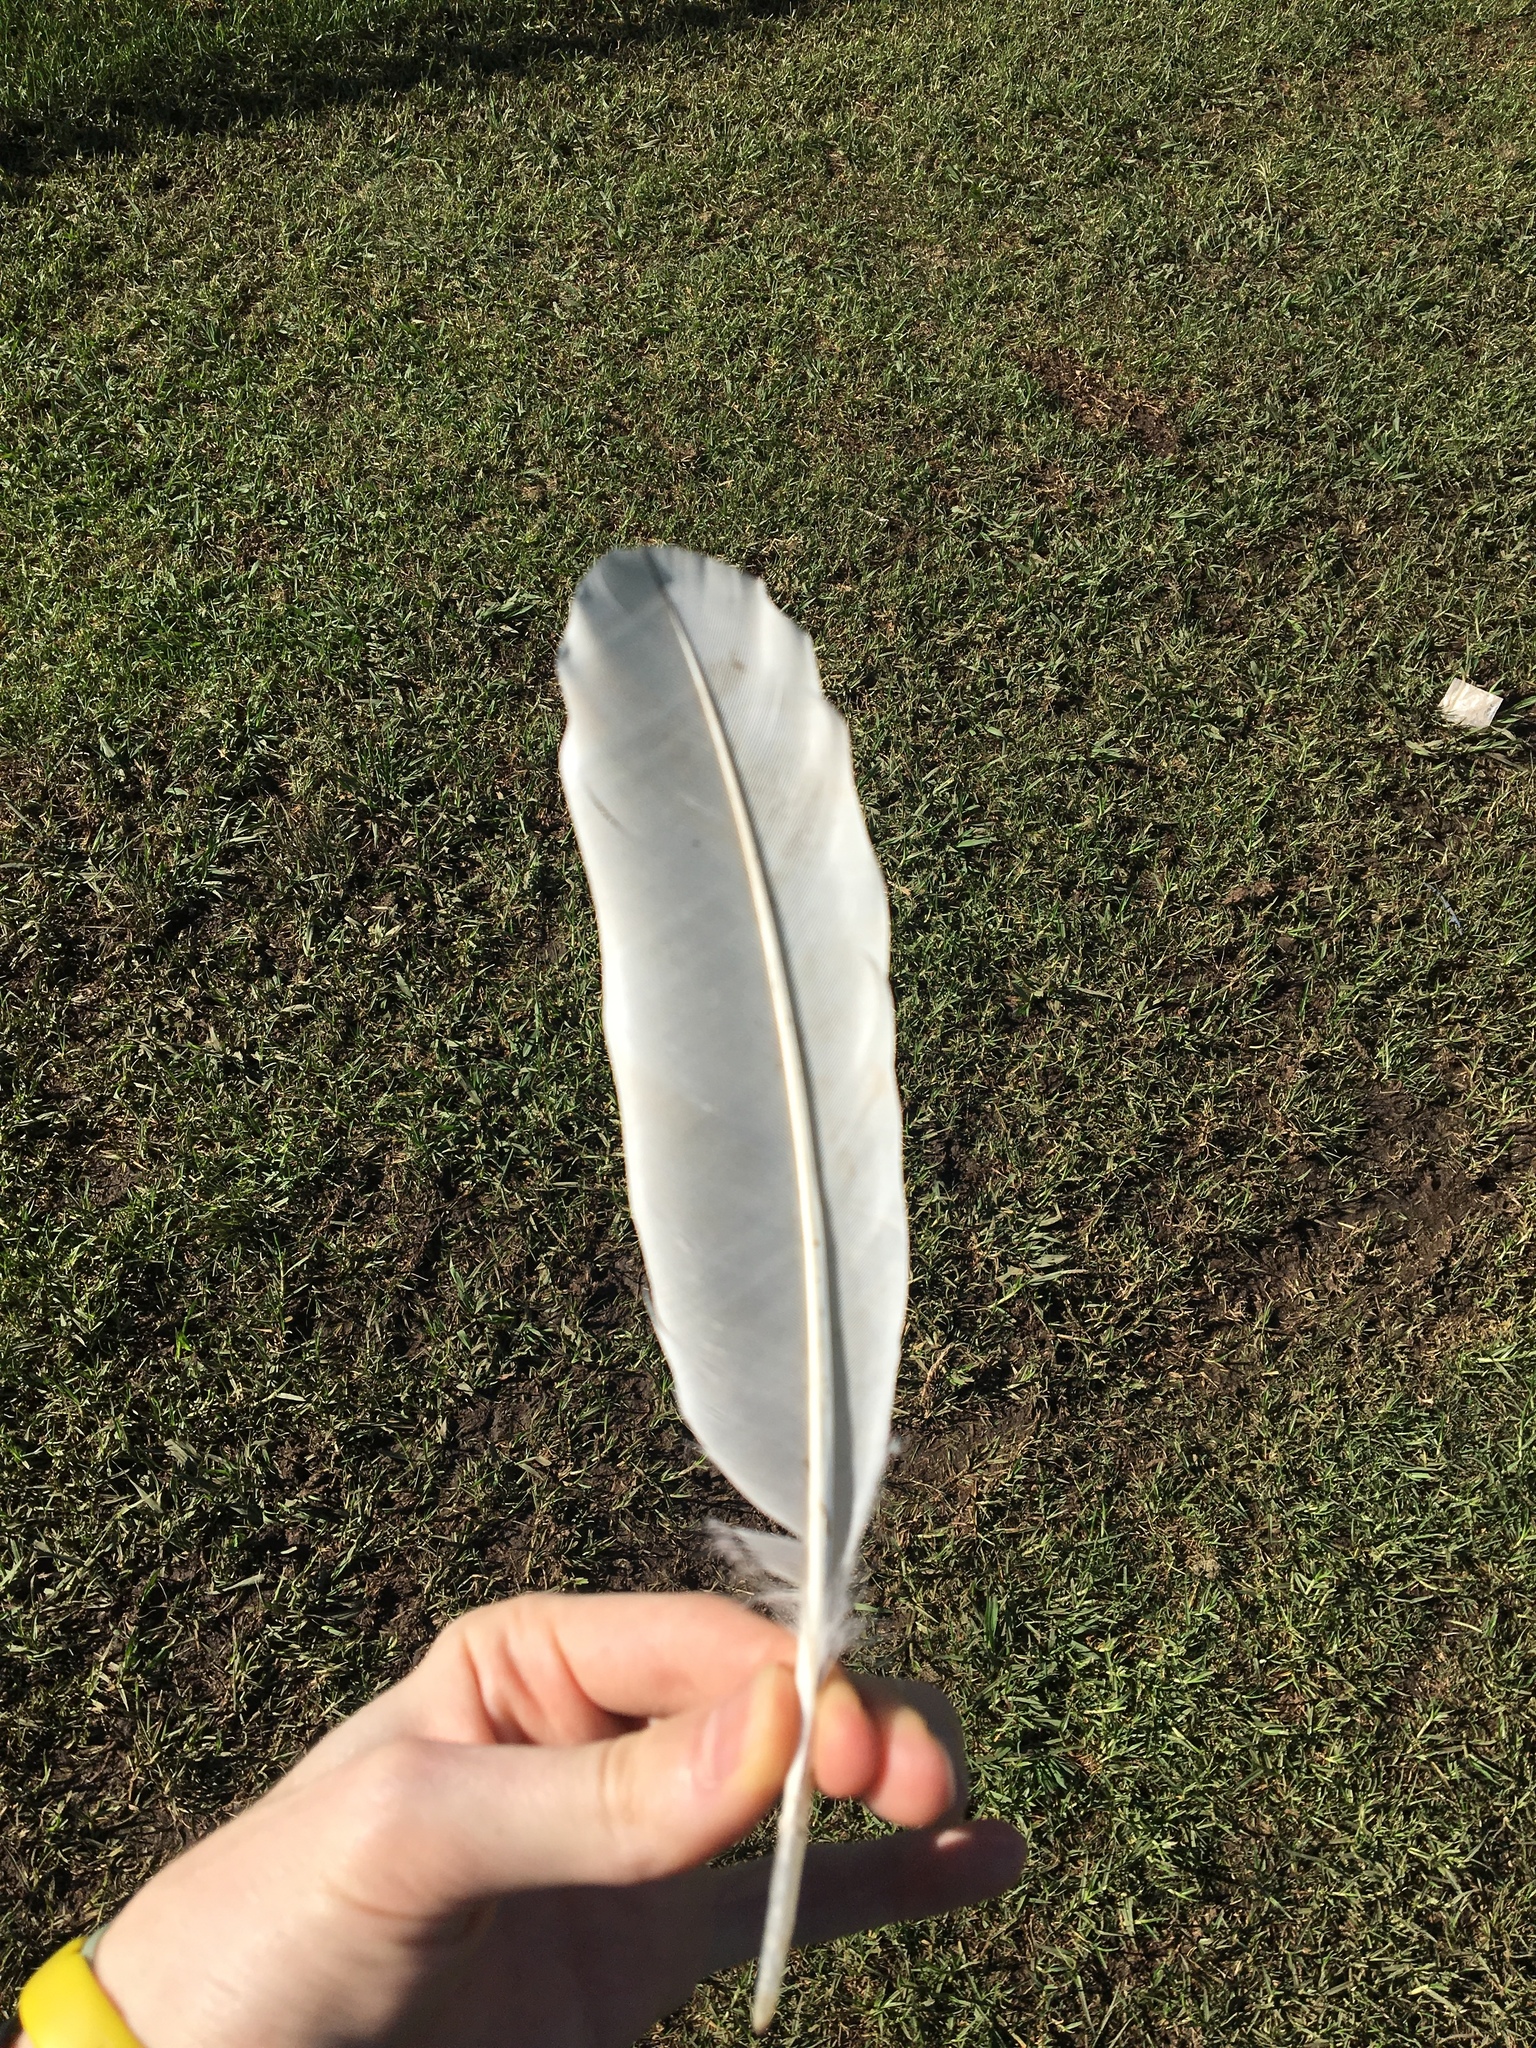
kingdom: Animalia
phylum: Chordata
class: Aves
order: Pelecaniformes
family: Threskiornithidae
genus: Threskiornis
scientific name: Threskiornis molucca
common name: Australian white ibis
